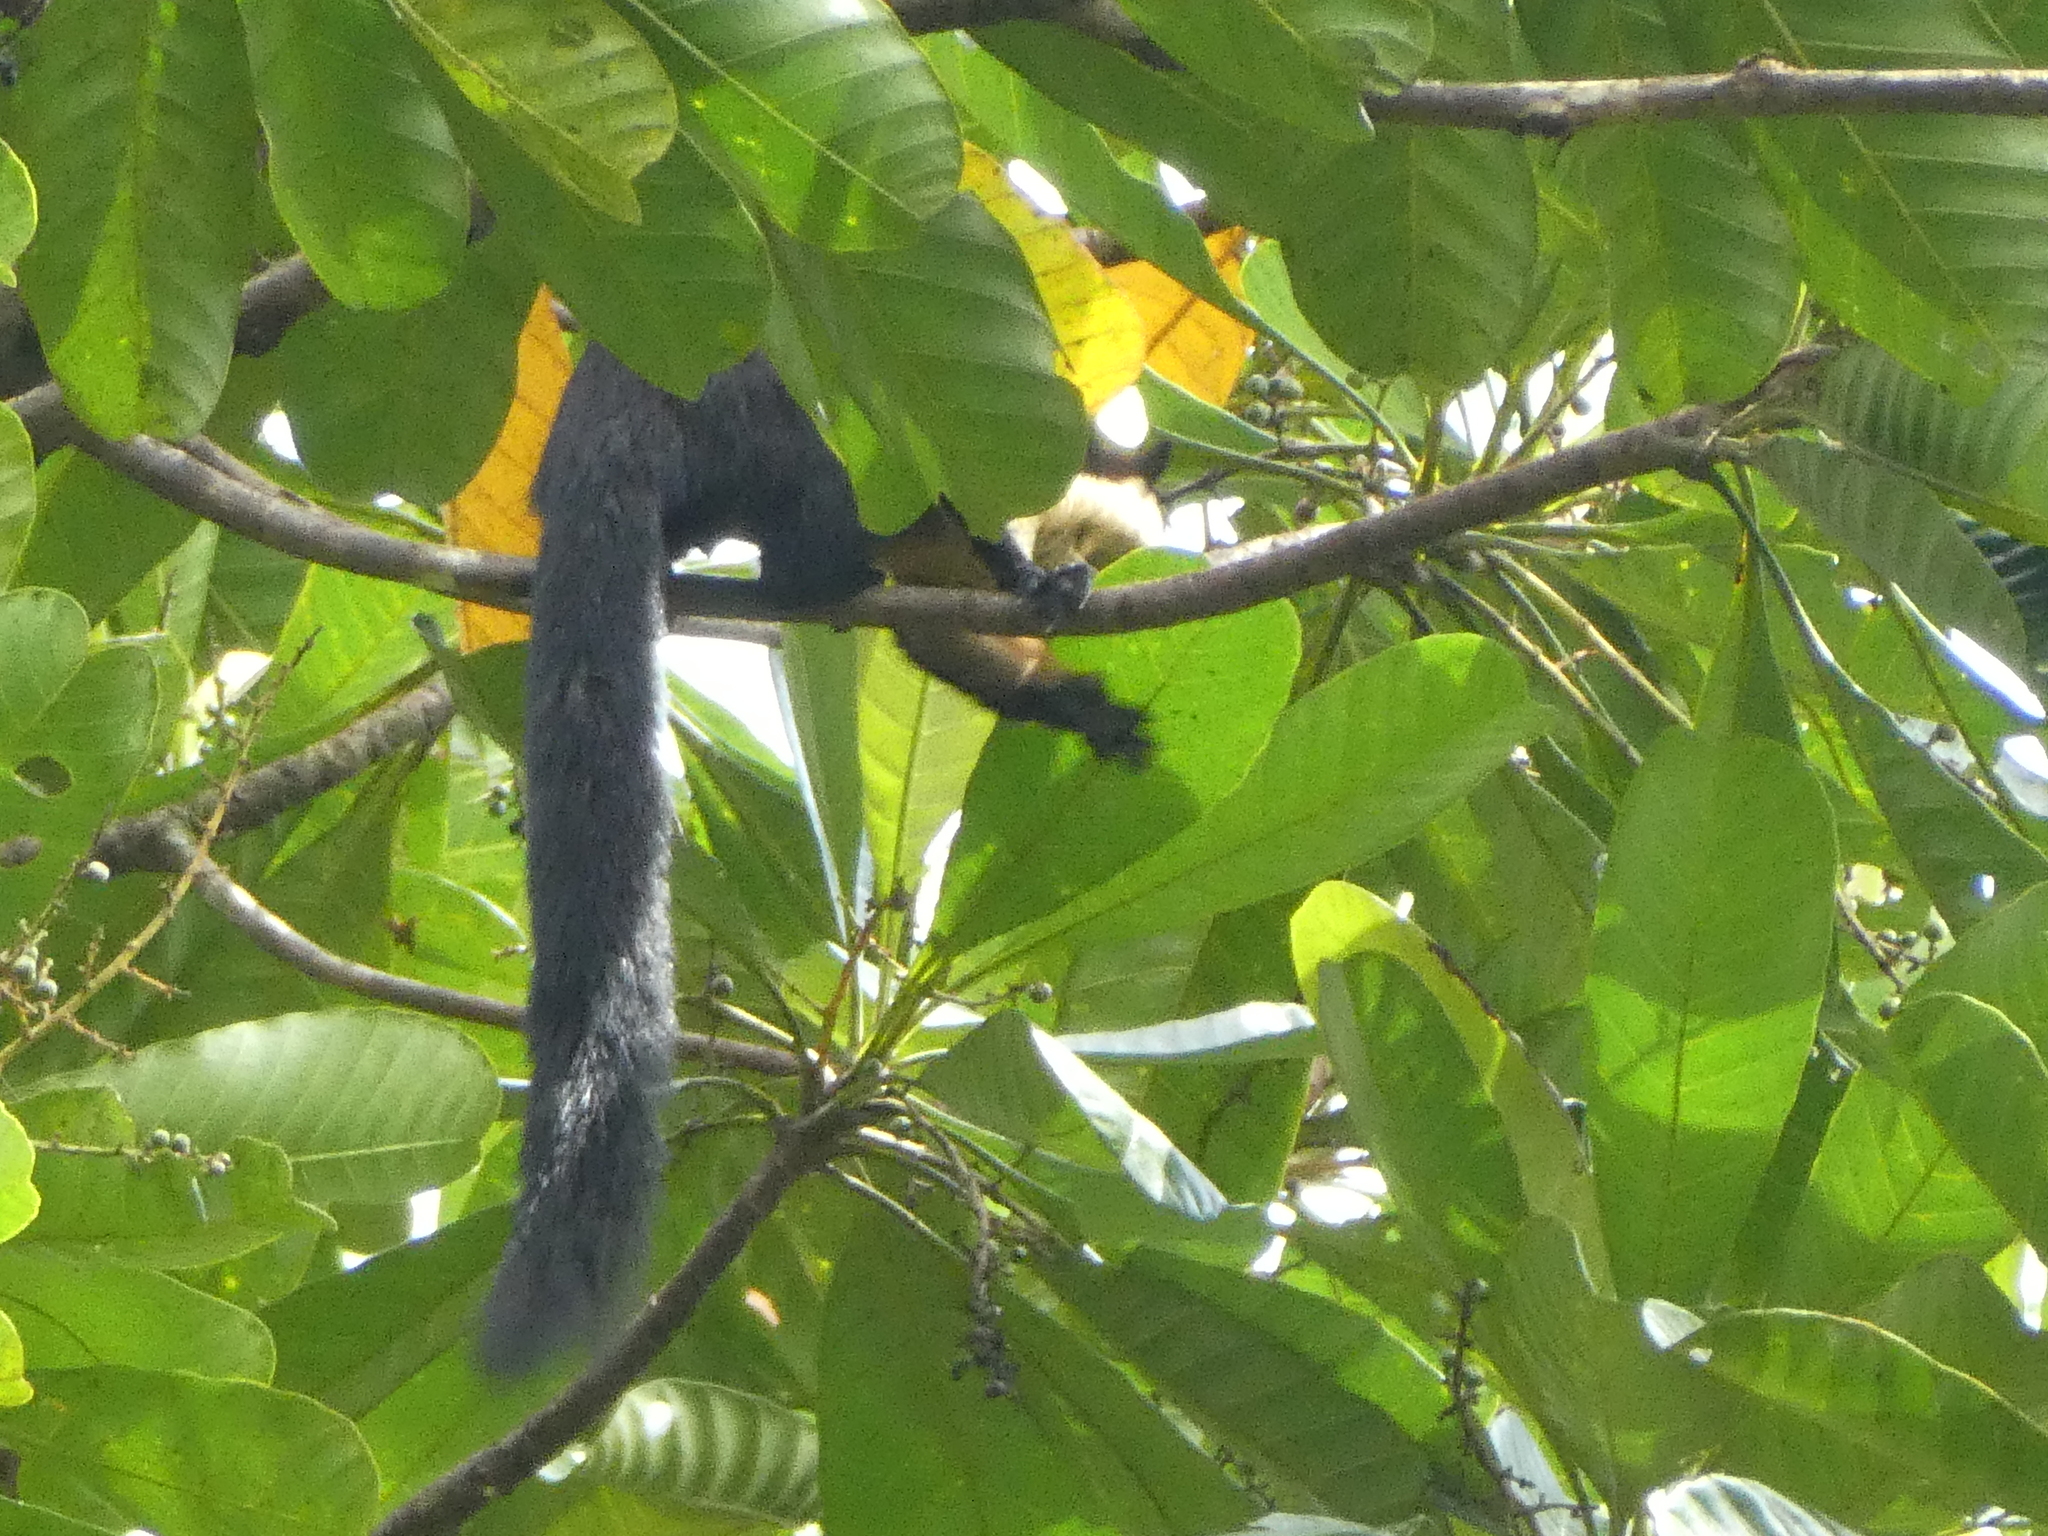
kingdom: Animalia
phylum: Chordata
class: Mammalia
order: Rodentia
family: Sciuridae
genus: Ratufa
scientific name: Ratufa bicolor
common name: Black giant squirrel
